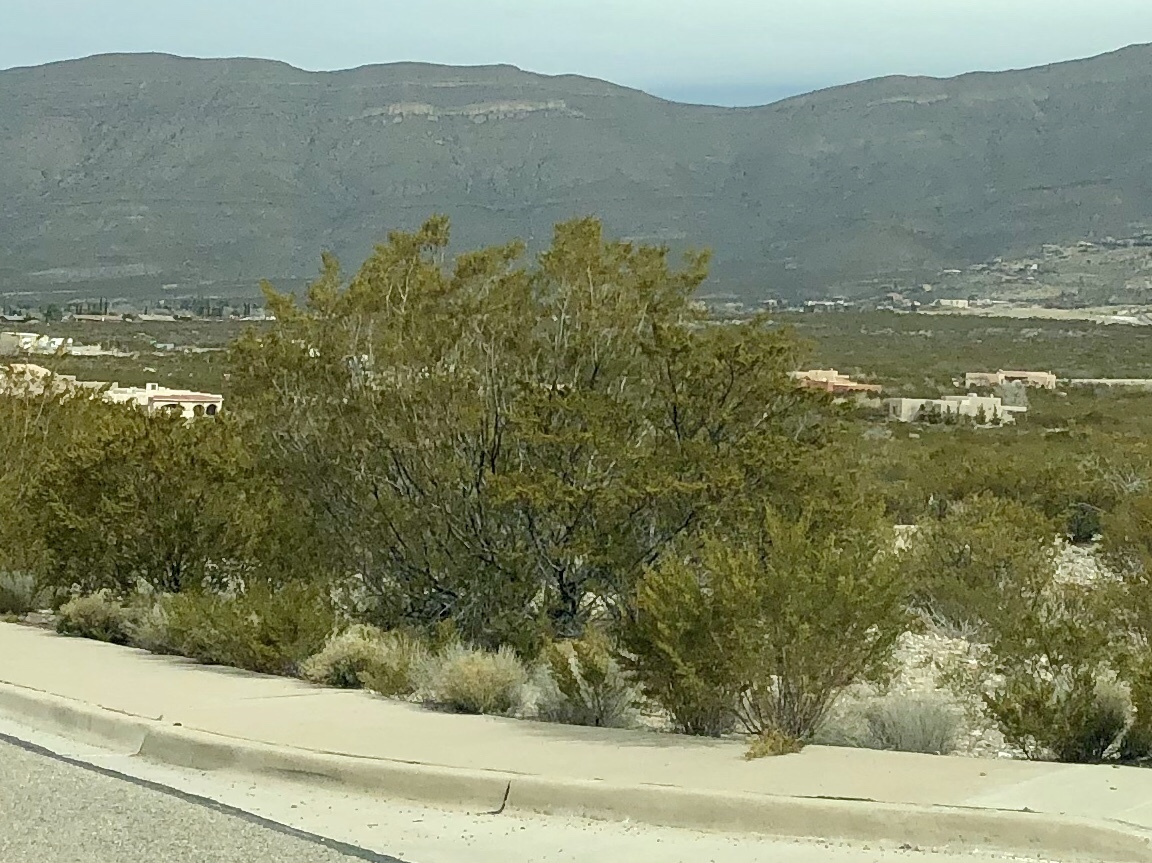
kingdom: Plantae
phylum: Tracheophyta
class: Magnoliopsida
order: Zygophyllales
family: Zygophyllaceae
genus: Larrea
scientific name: Larrea tridentata
